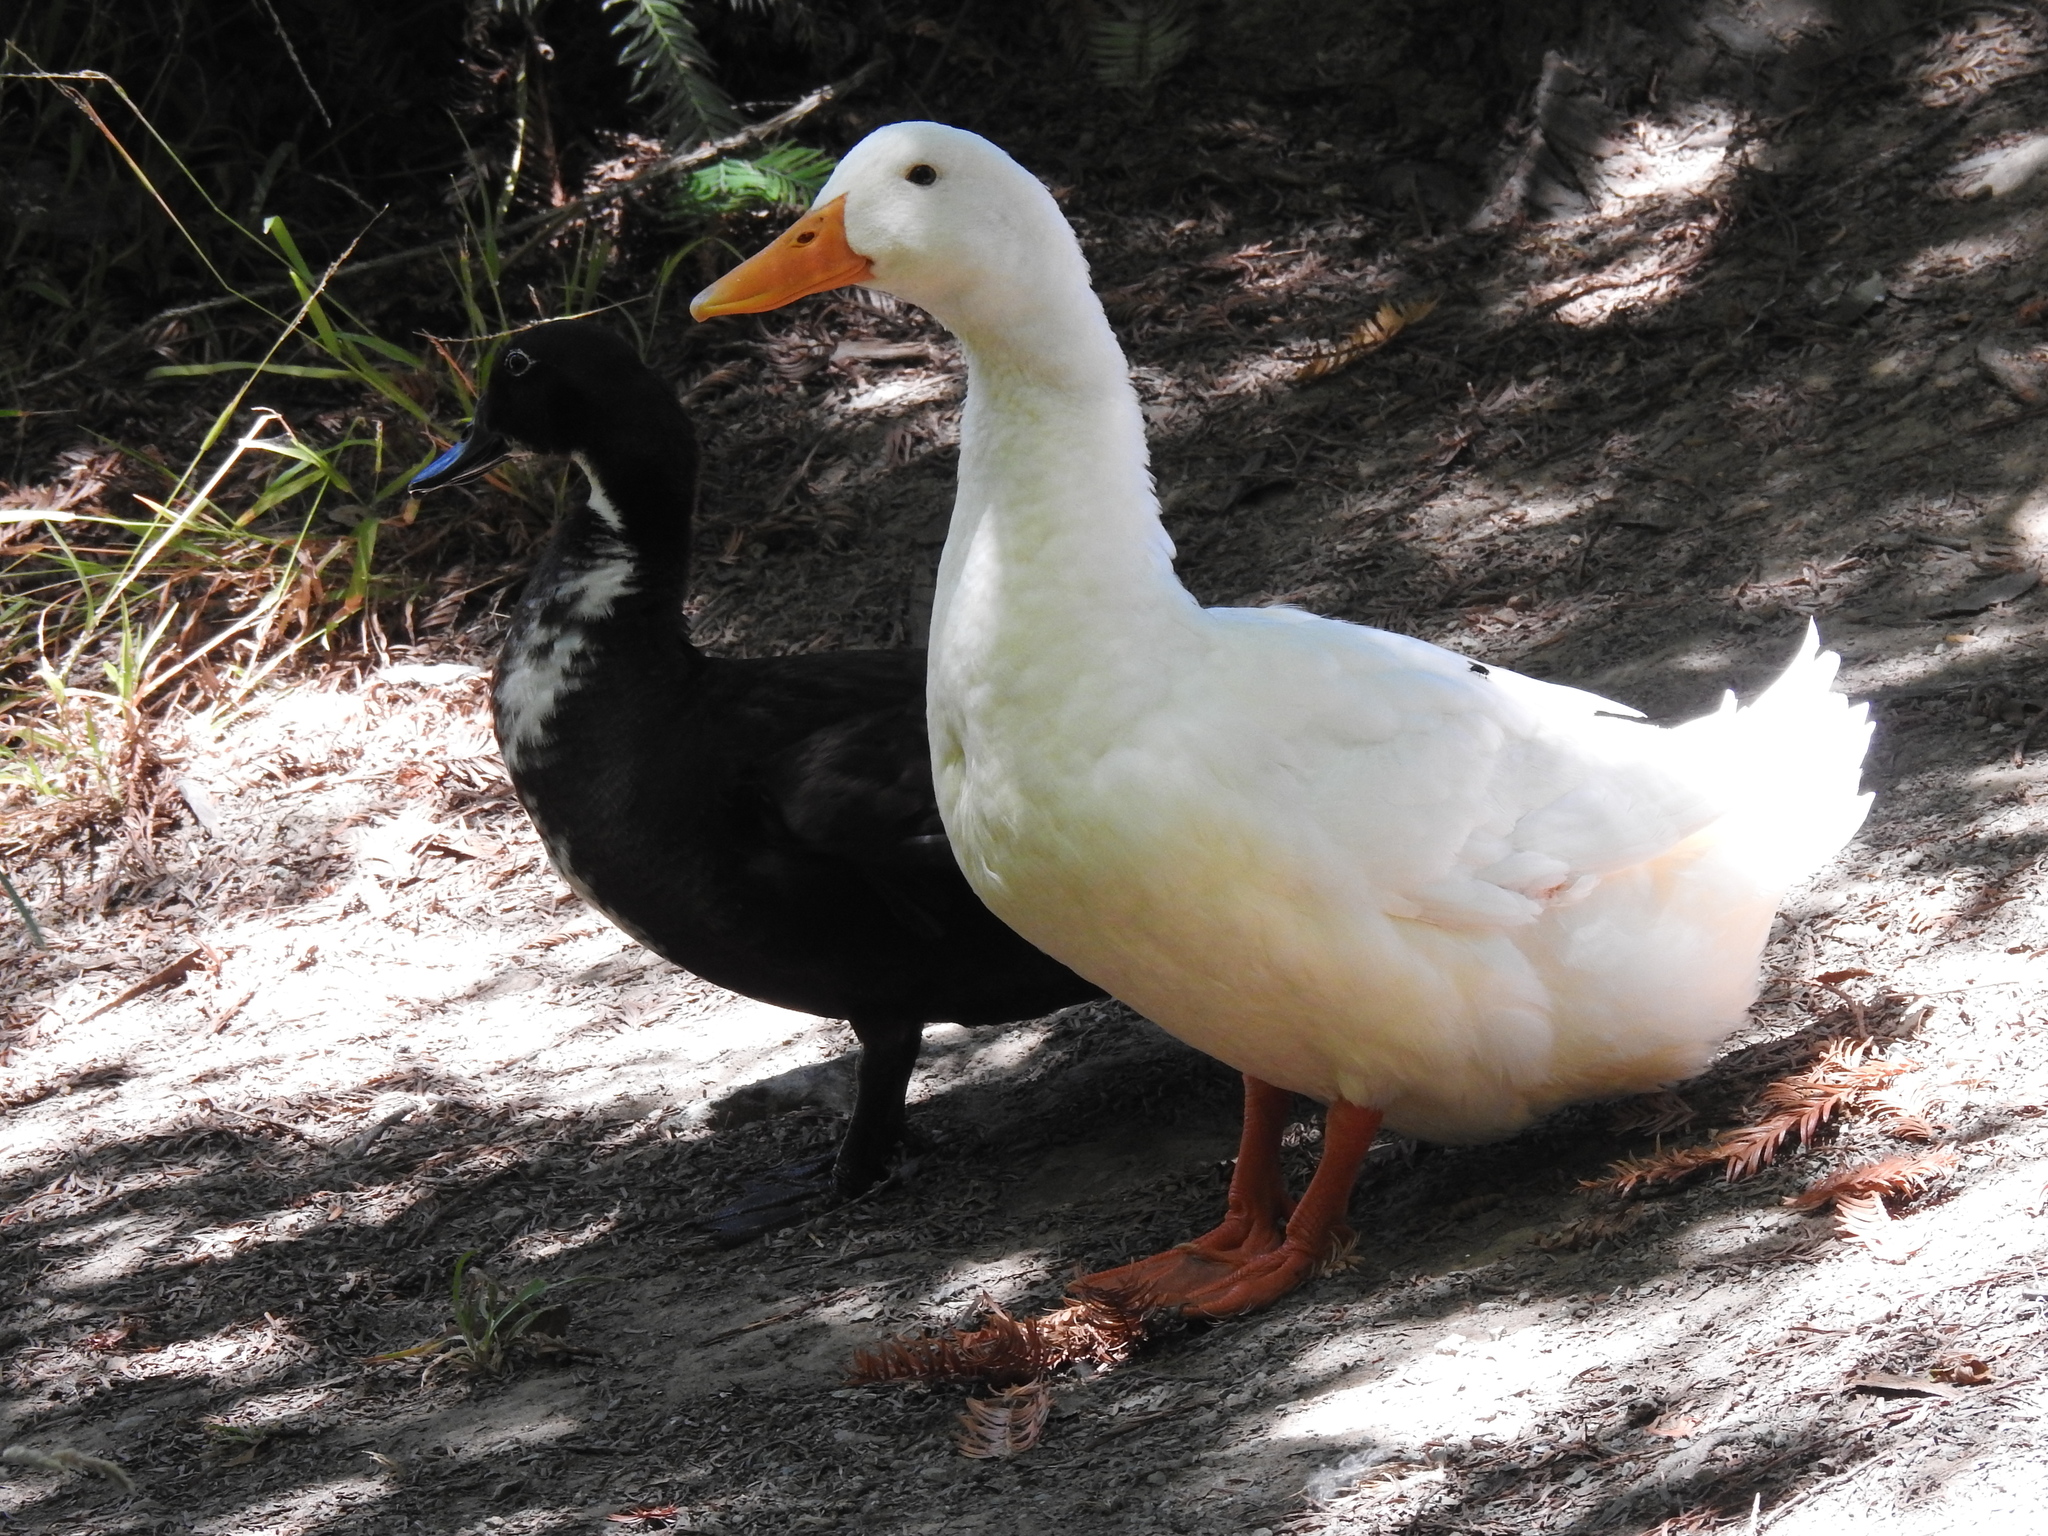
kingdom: Animalia
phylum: Chordata
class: Aves
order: Anseriformes
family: Anatidae
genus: Anas
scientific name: Anas platyrhynchos
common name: Mallard
